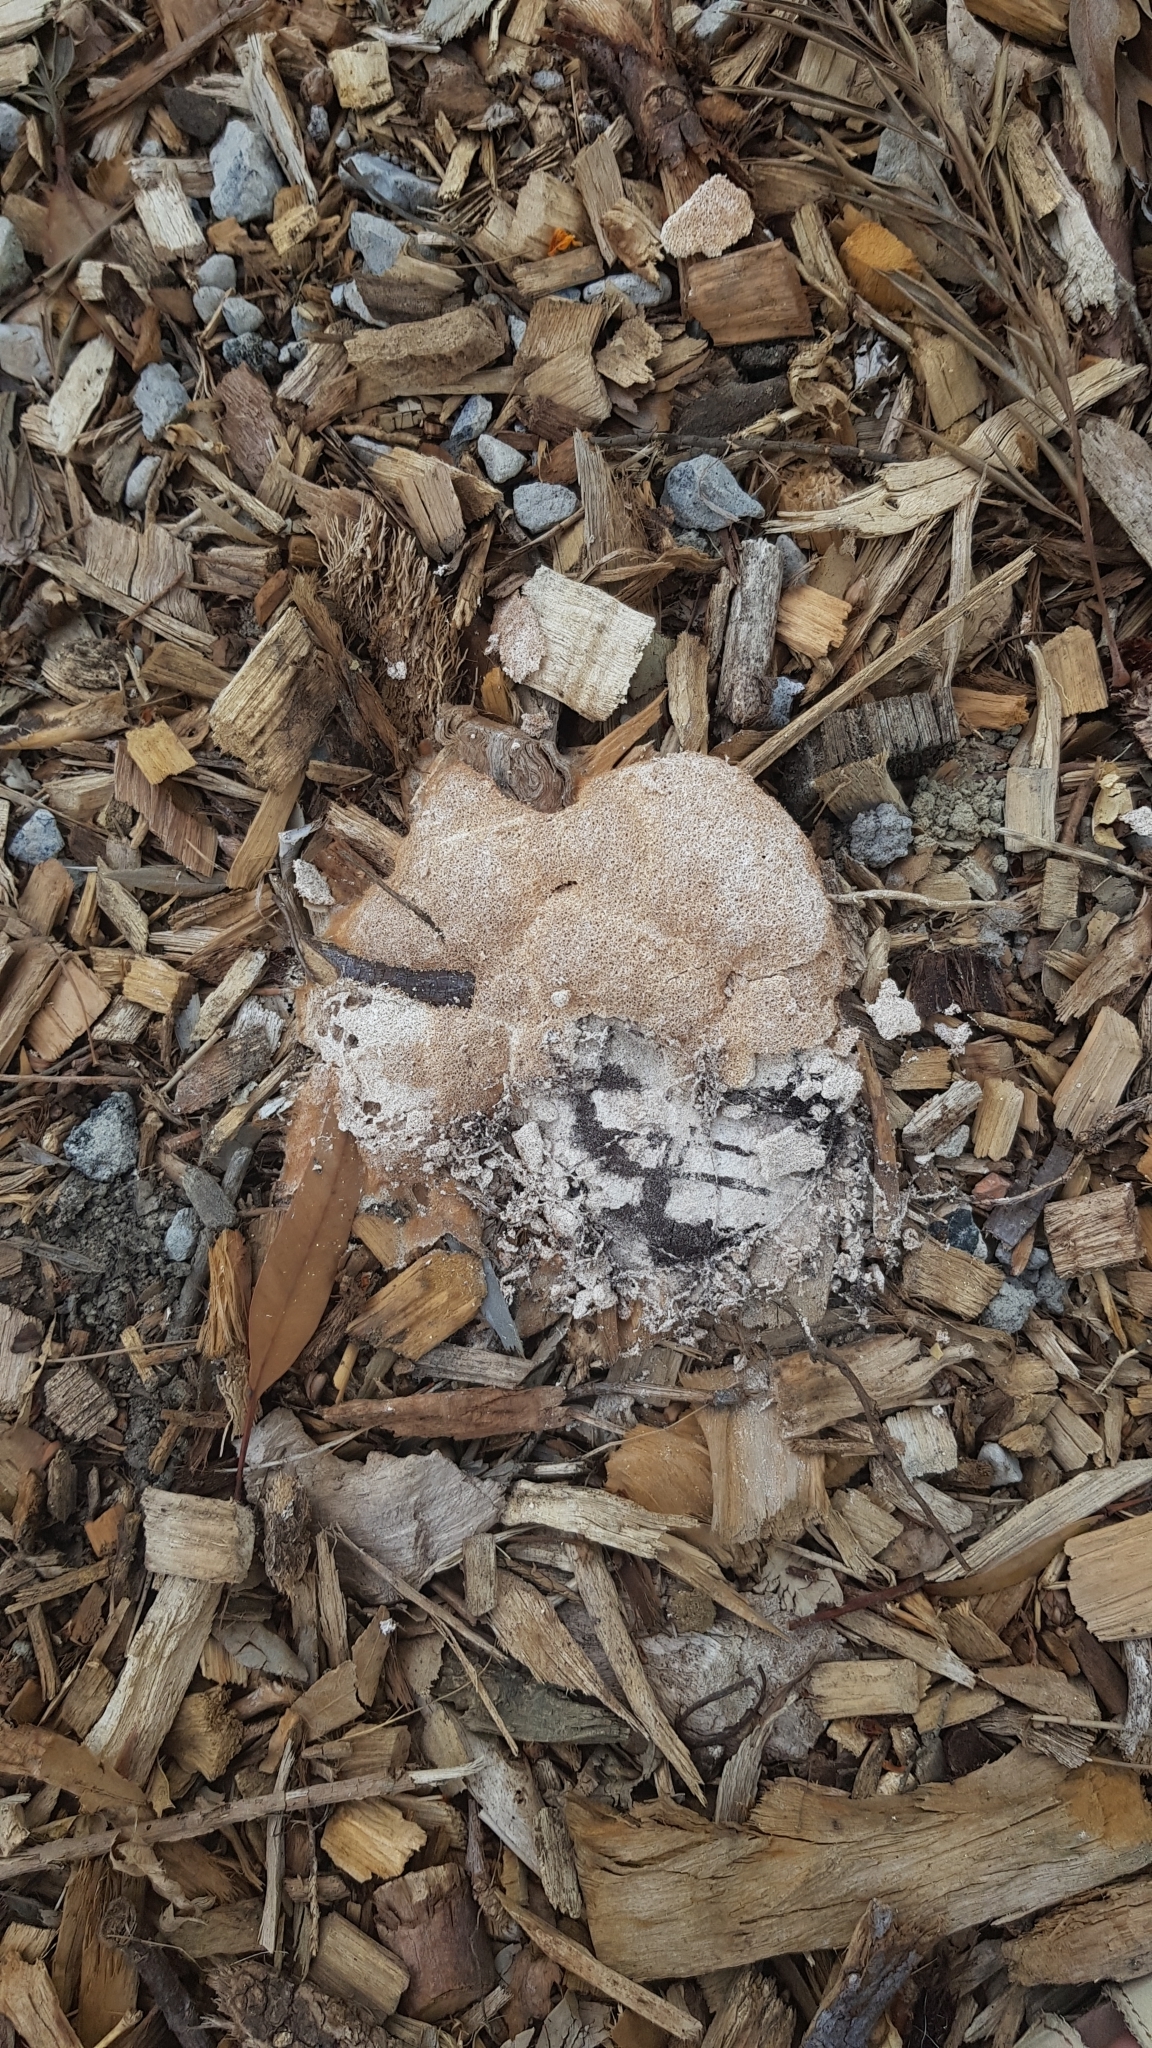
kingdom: Protozoa
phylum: Mycetozoa
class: Myxomycetes
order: Physarales
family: Physaraceae
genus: Fuligo
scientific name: Fuligo septica
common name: Dog vomit slime mold
